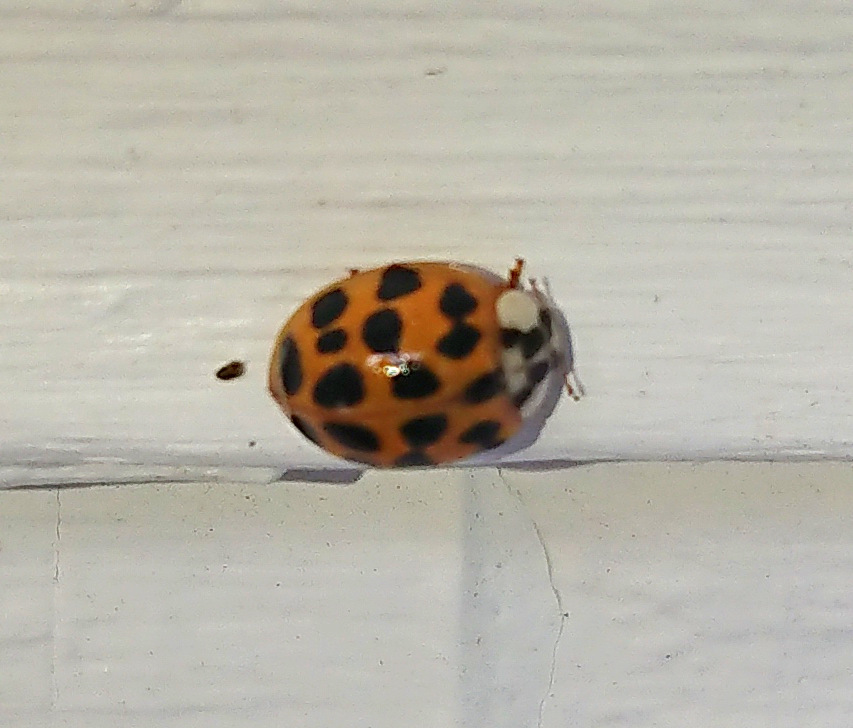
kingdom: Animalia
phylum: Arthropoda
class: Insecta
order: Coleoptera
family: Coccinellidae
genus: Harmonia
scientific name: Harmonia axyridis
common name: Harlequin ladybird
